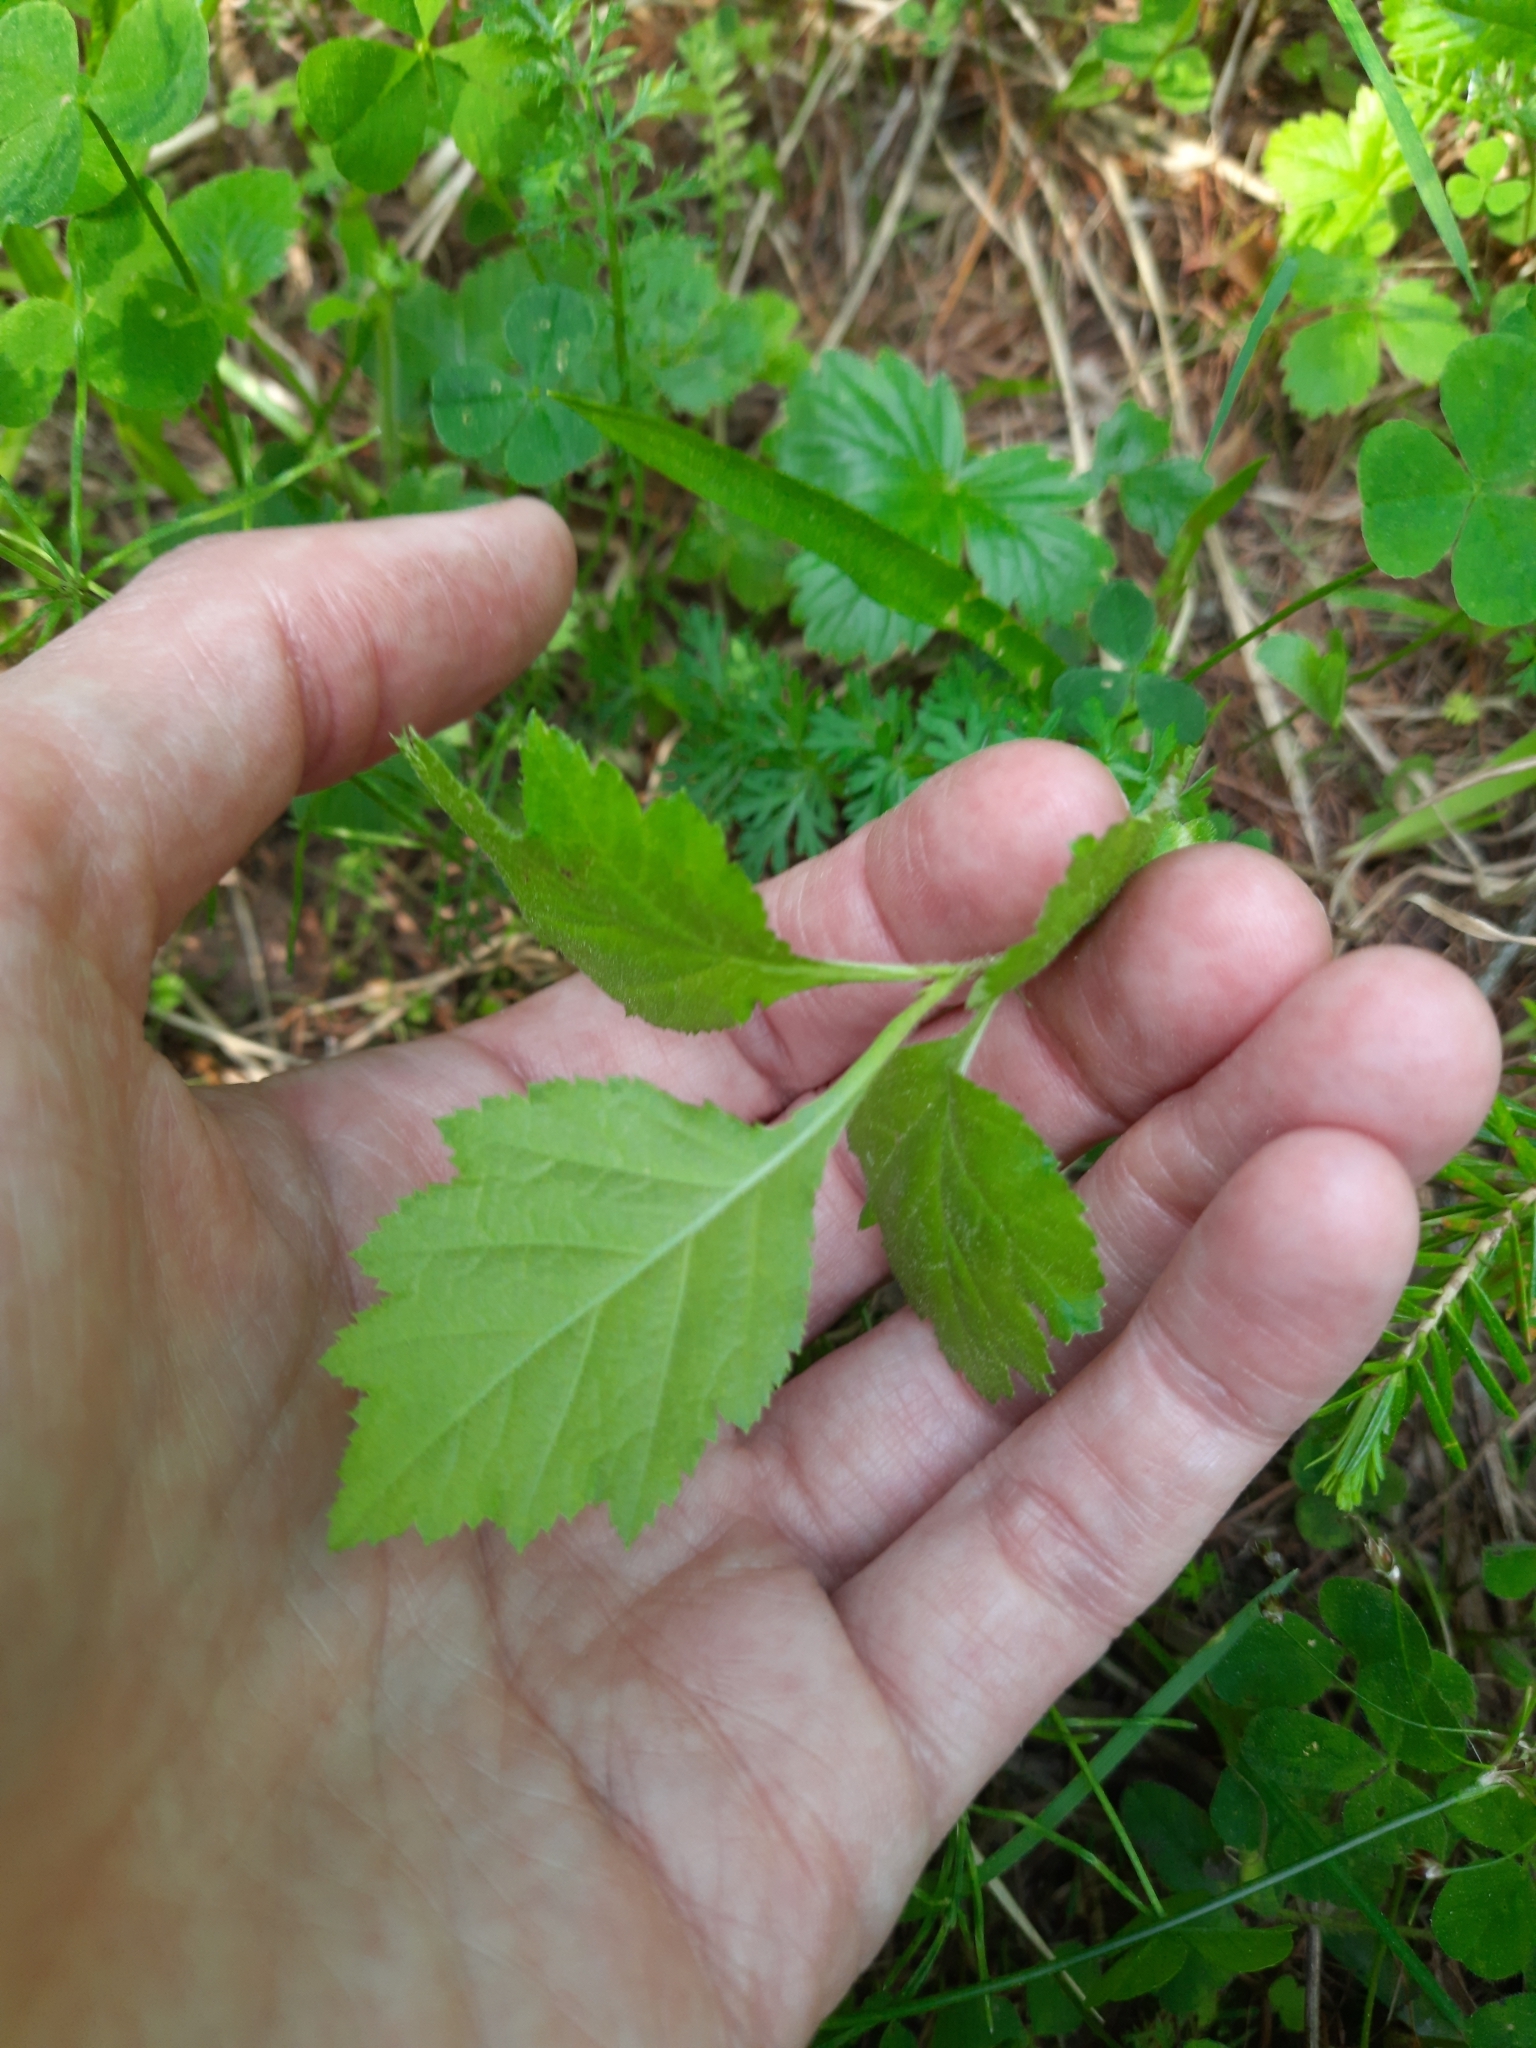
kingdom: Plantae
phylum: Tracheophyta
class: Magnoliopsida
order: Rosales
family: Rosaceae
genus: Crataegus
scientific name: Crataegus sanguinea
